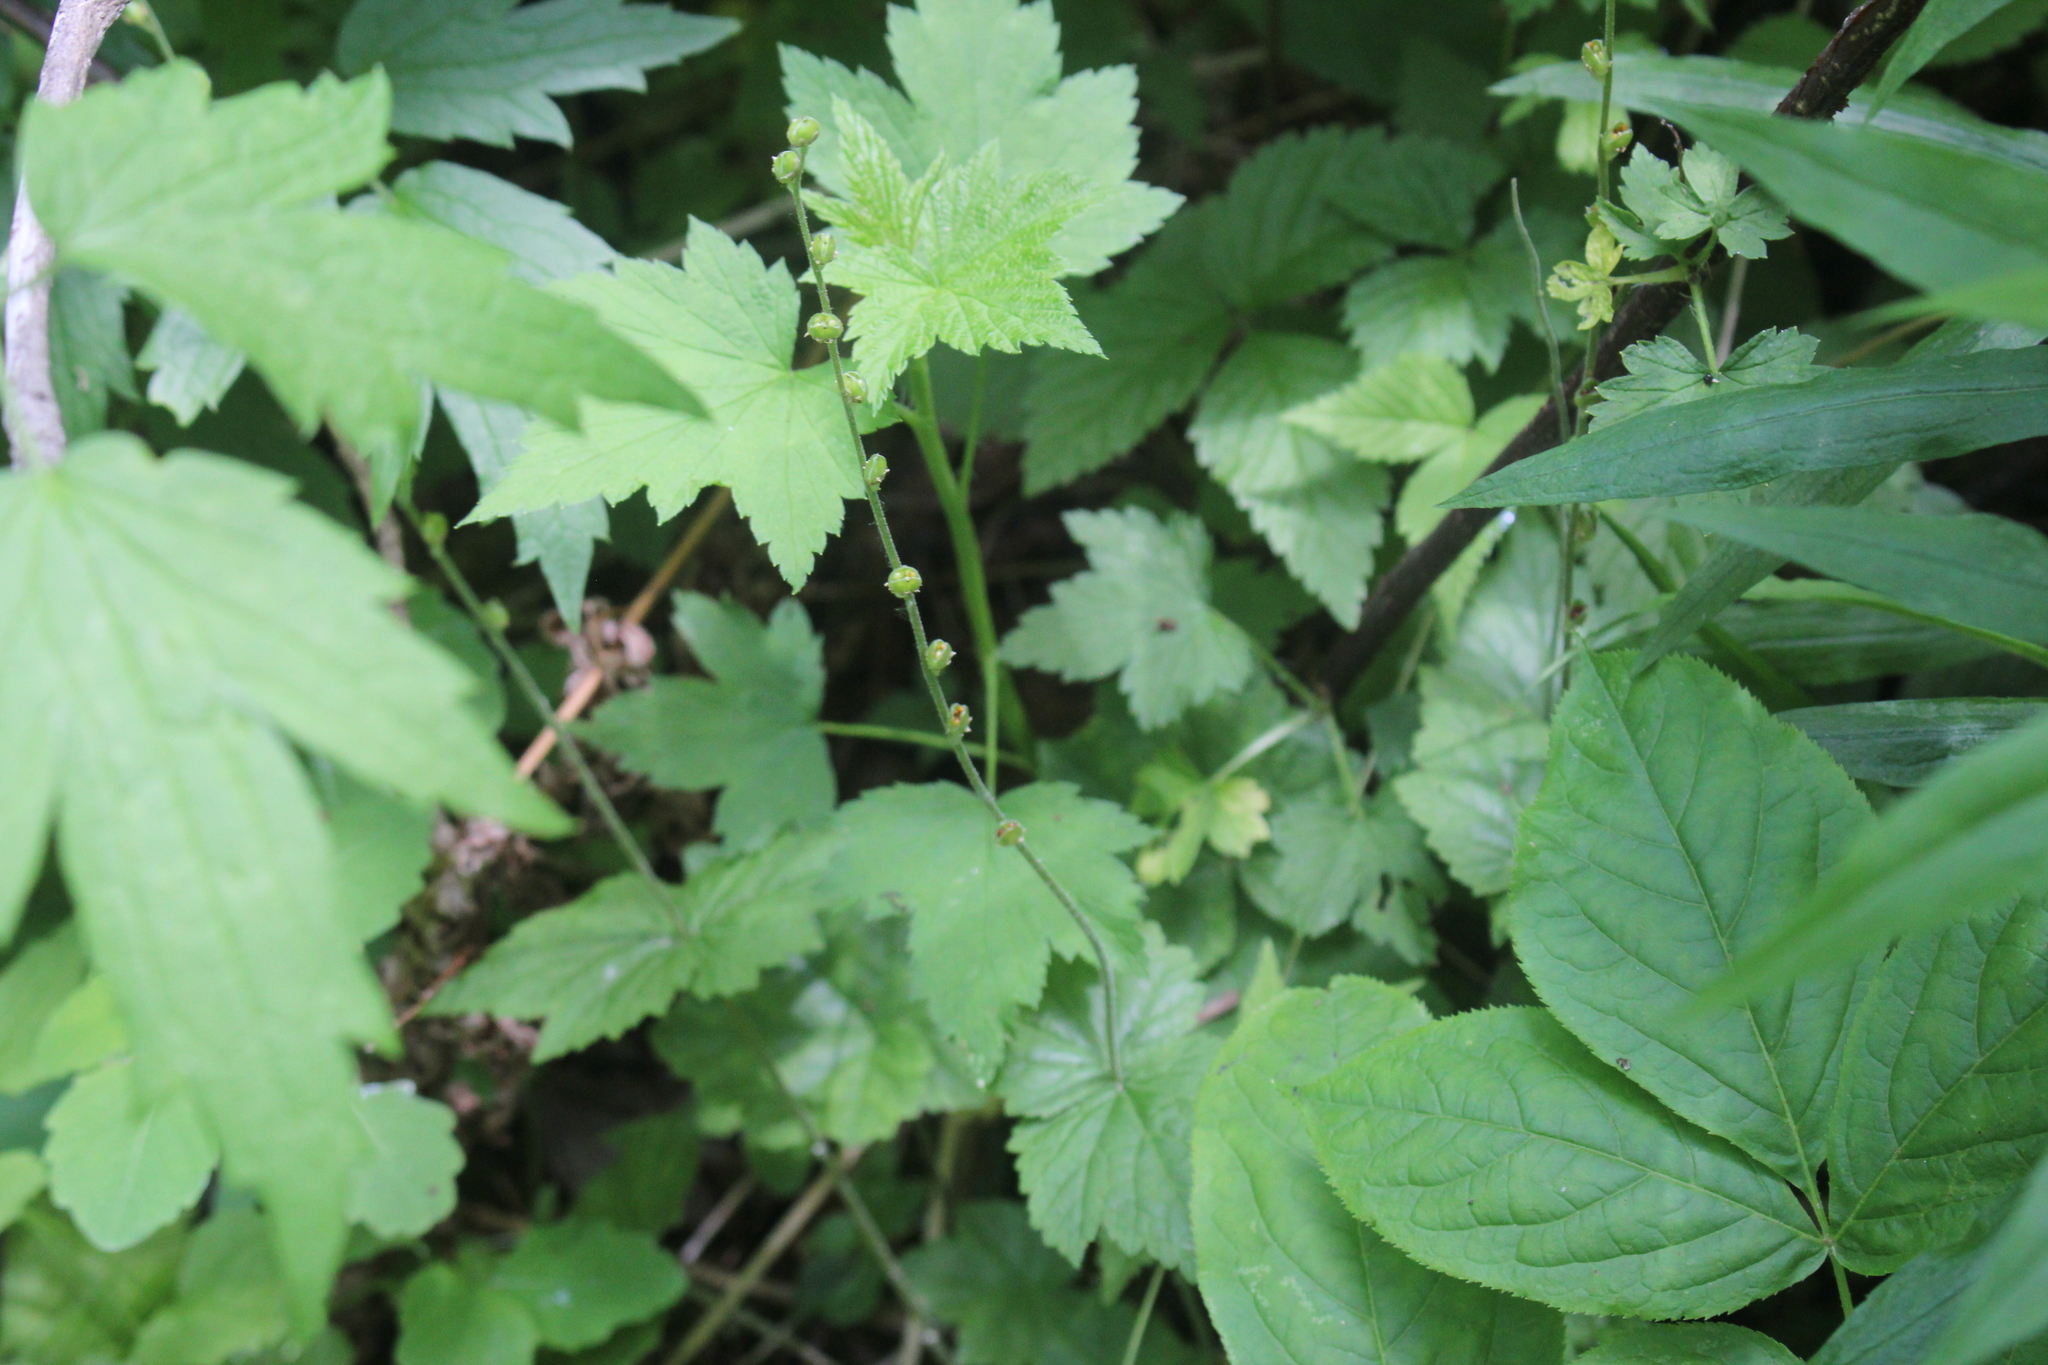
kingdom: Plantae
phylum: Tracheophyta
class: Magnoliopsida
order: Saxifragales
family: Saxifragaceae
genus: Mitella
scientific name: Mitella diphylla
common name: Coolwort
